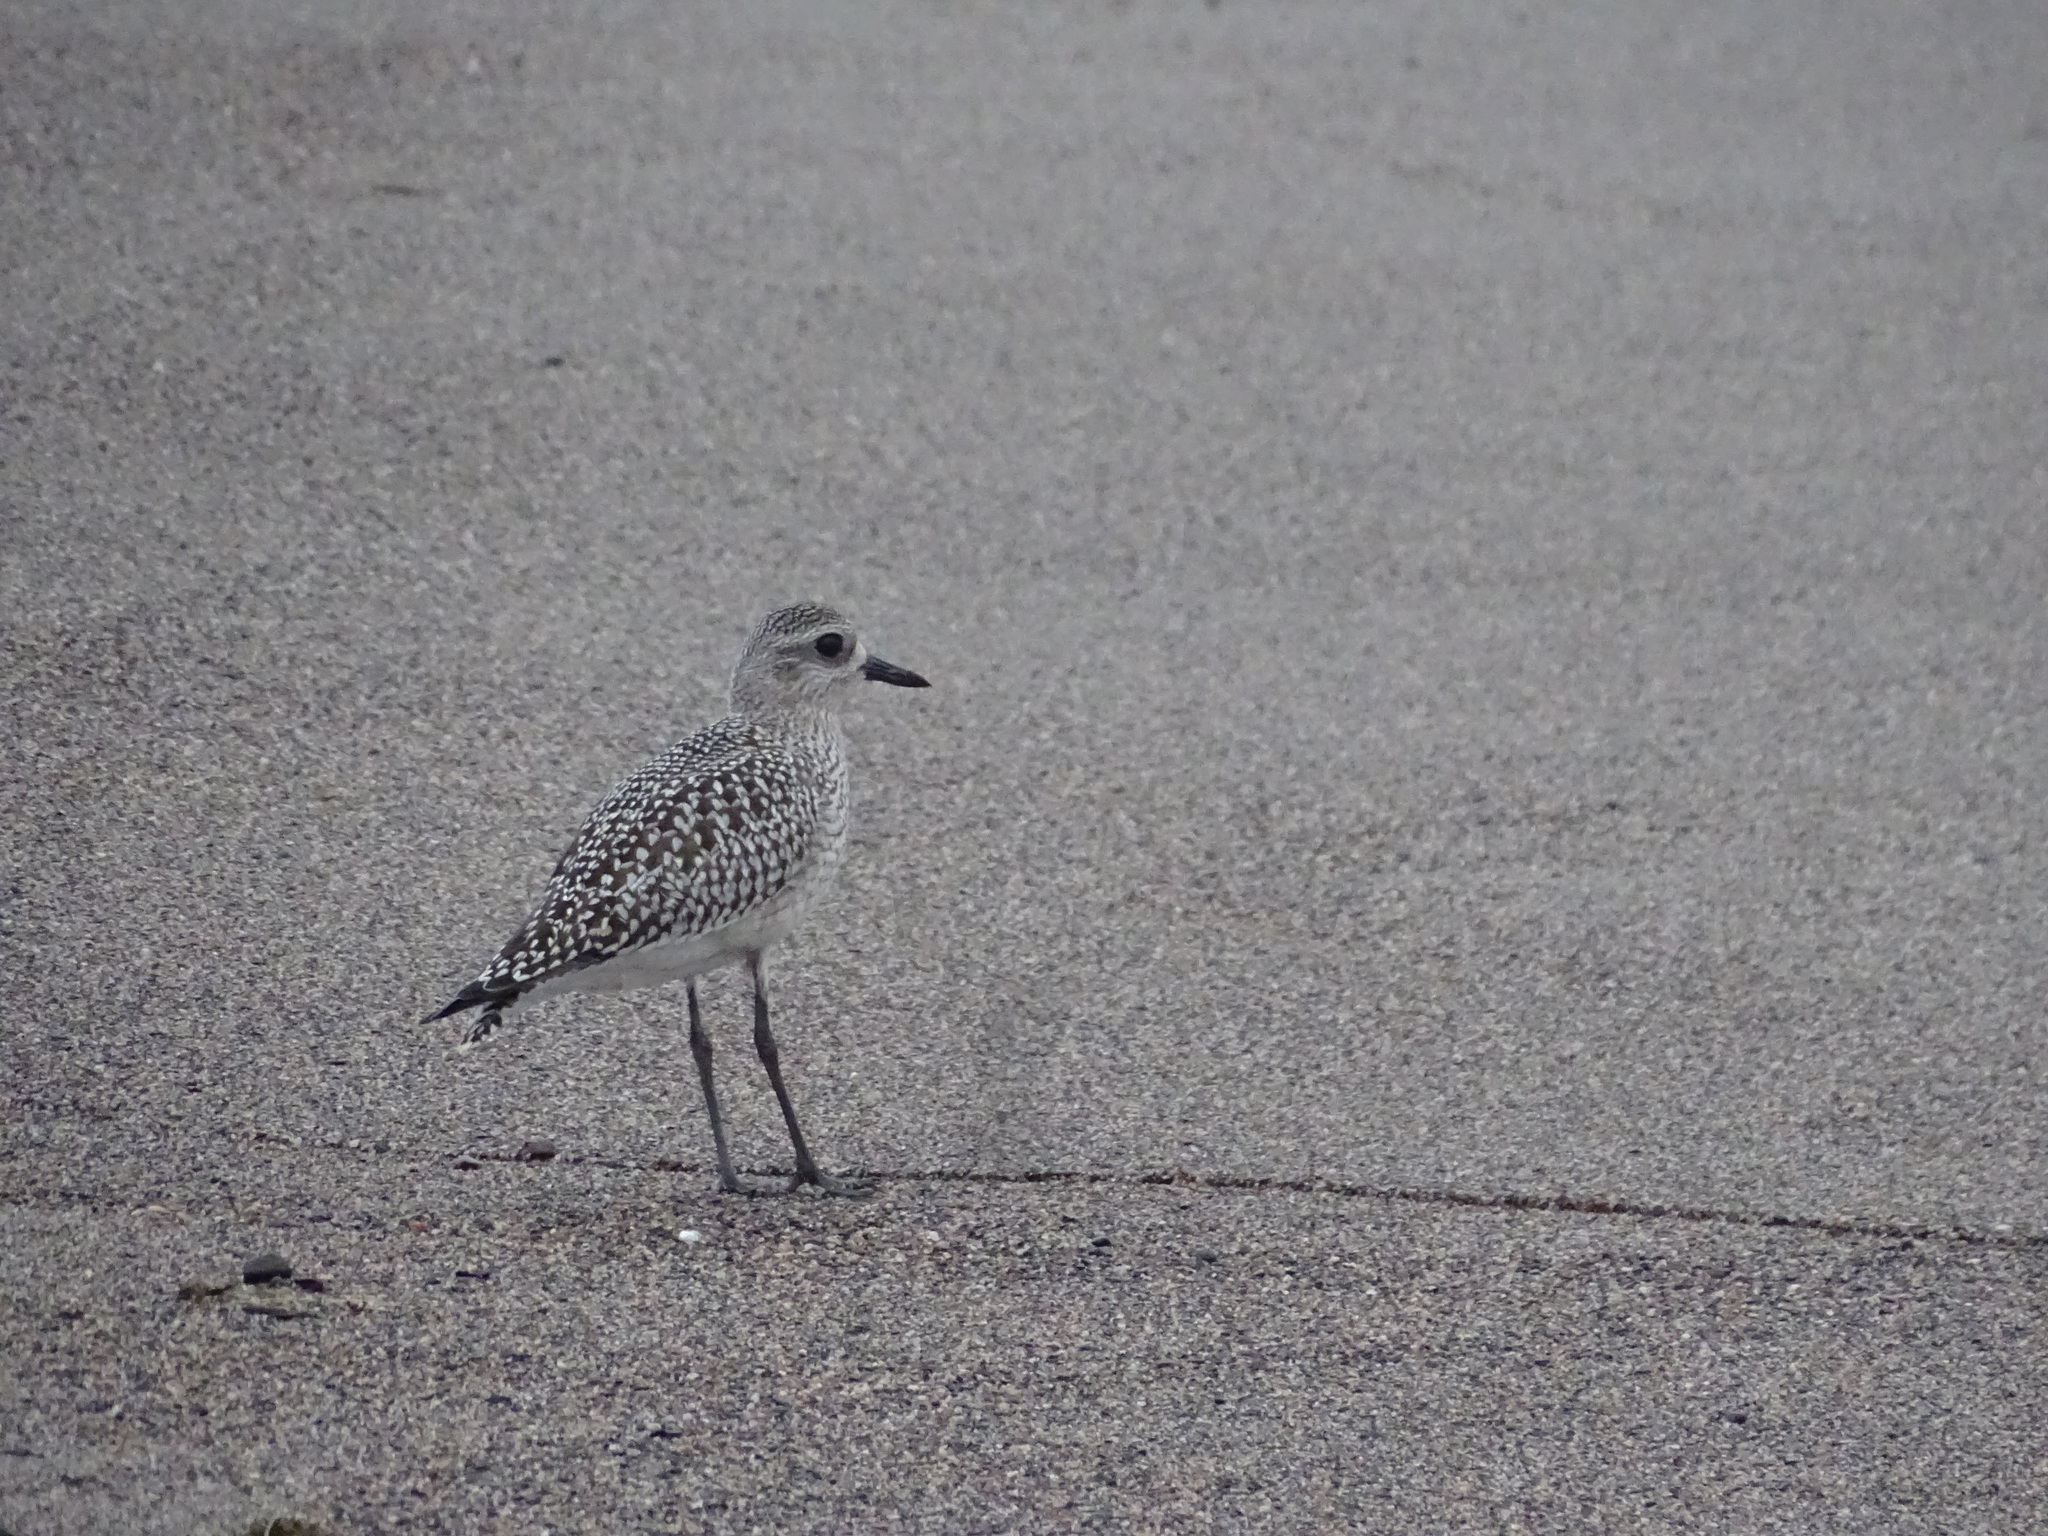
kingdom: Animalia
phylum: Chordata
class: Aves
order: Charadriiformes
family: Charadriidae
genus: Pluvialis
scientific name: Pluvialis squatarola
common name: Grey plover
